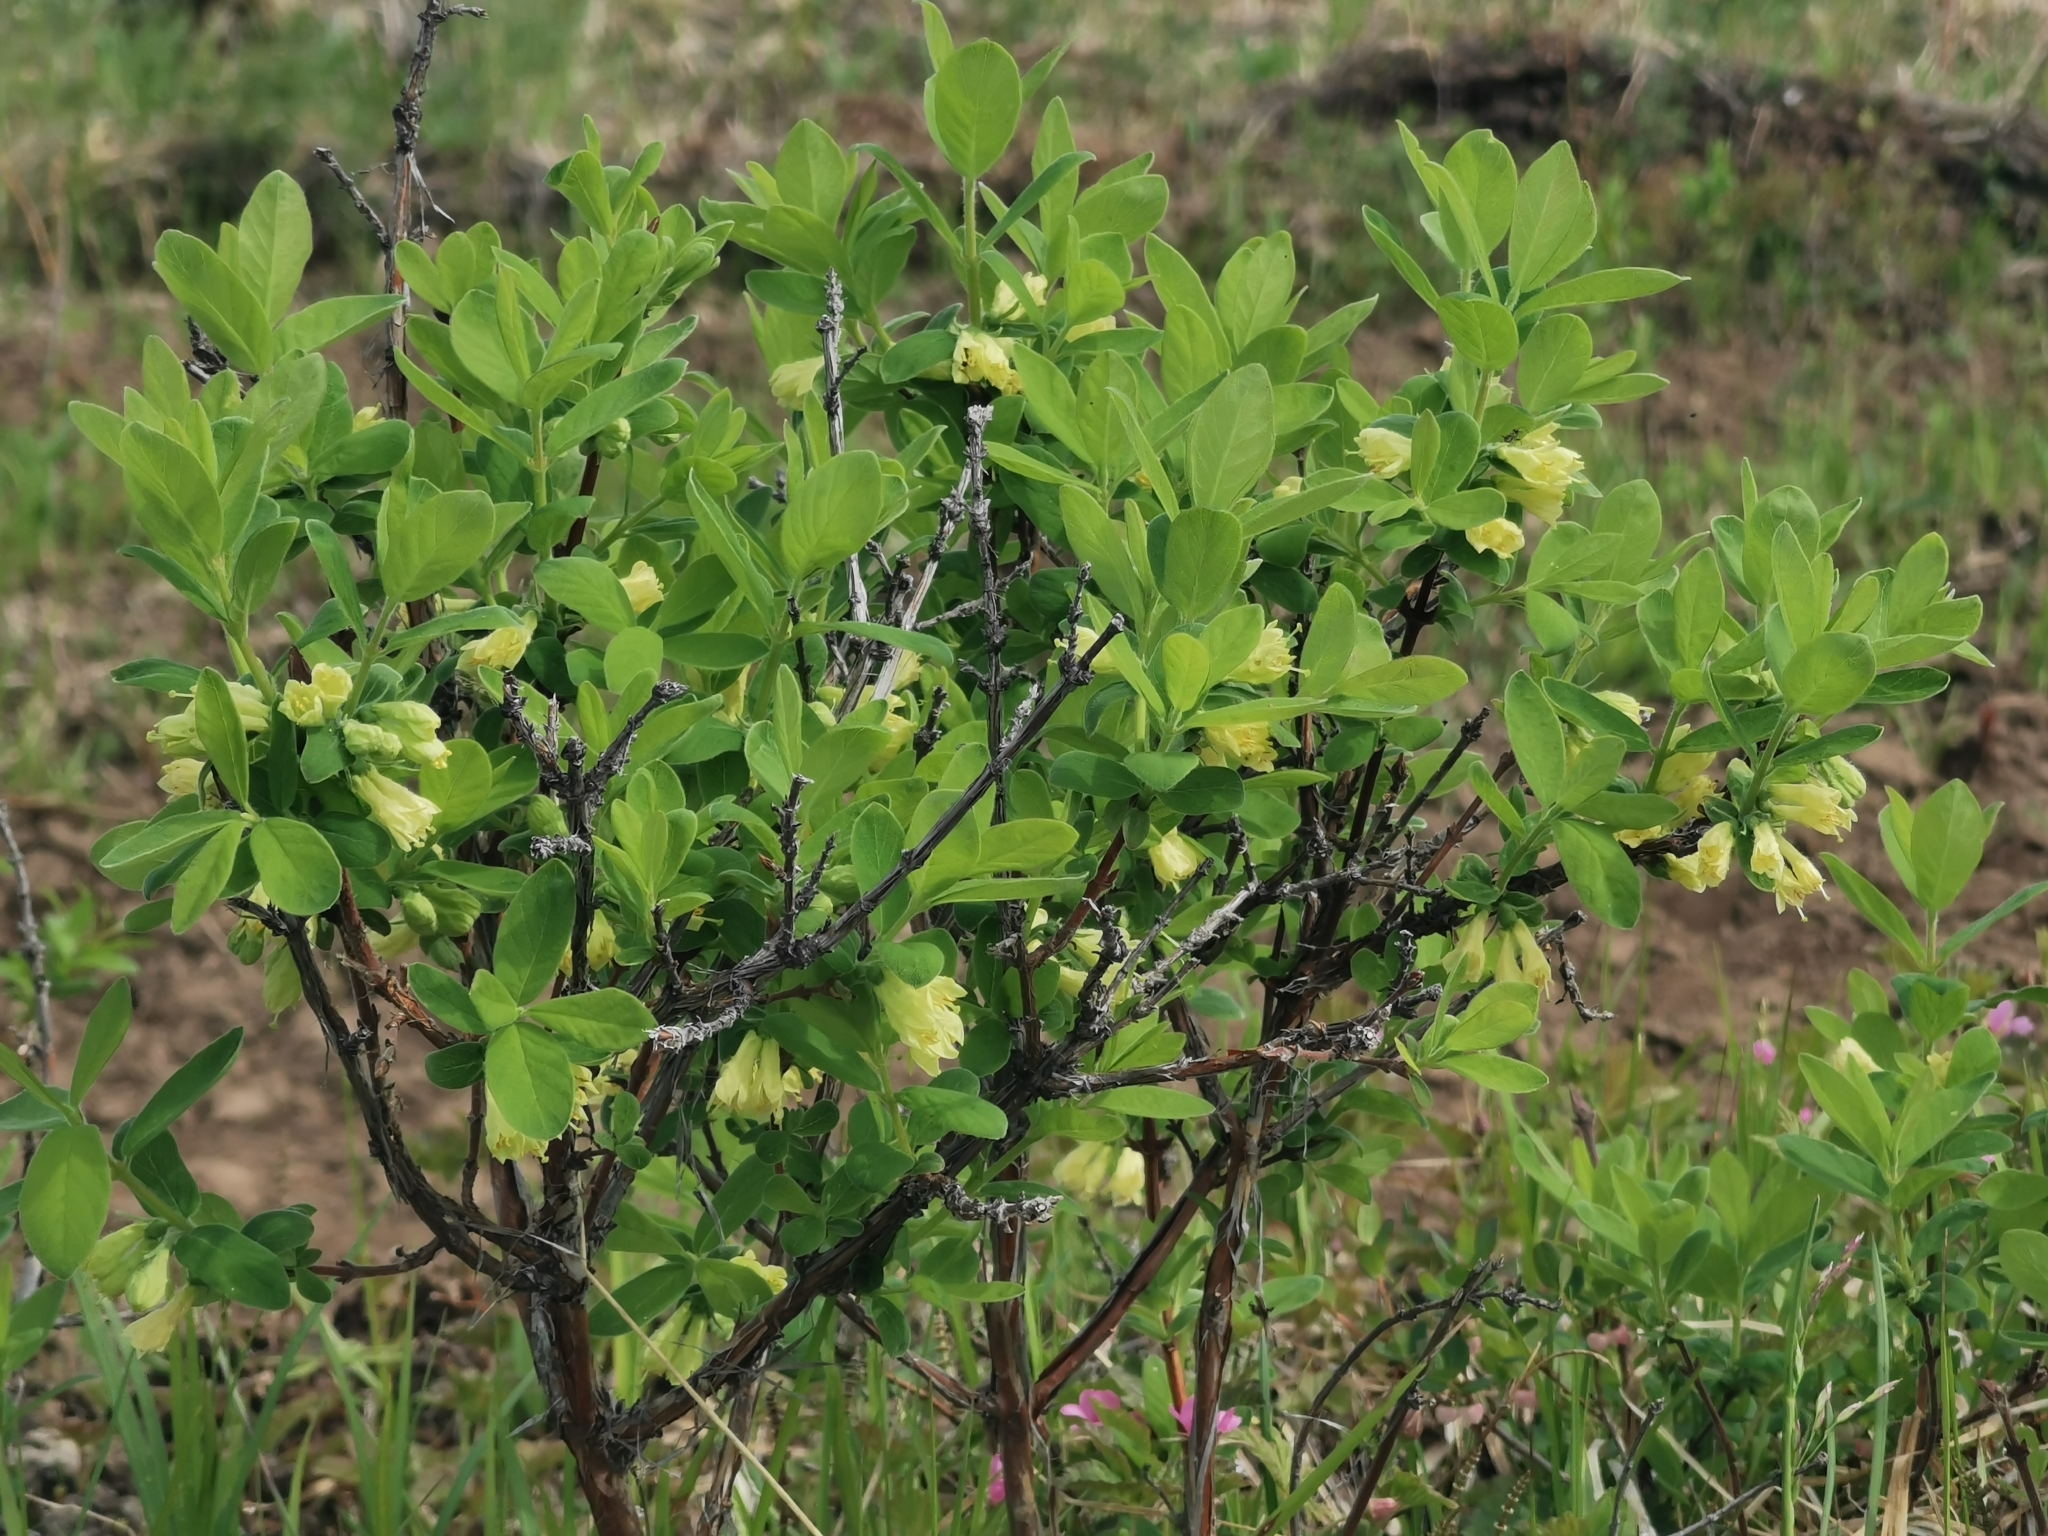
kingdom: Plantae
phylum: Tracheophyta
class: Magnoliopsida
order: Dipsacales
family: Caprifoliaceae
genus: Lonicera
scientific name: Lonicera caerulea
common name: Blue honeysuckle
